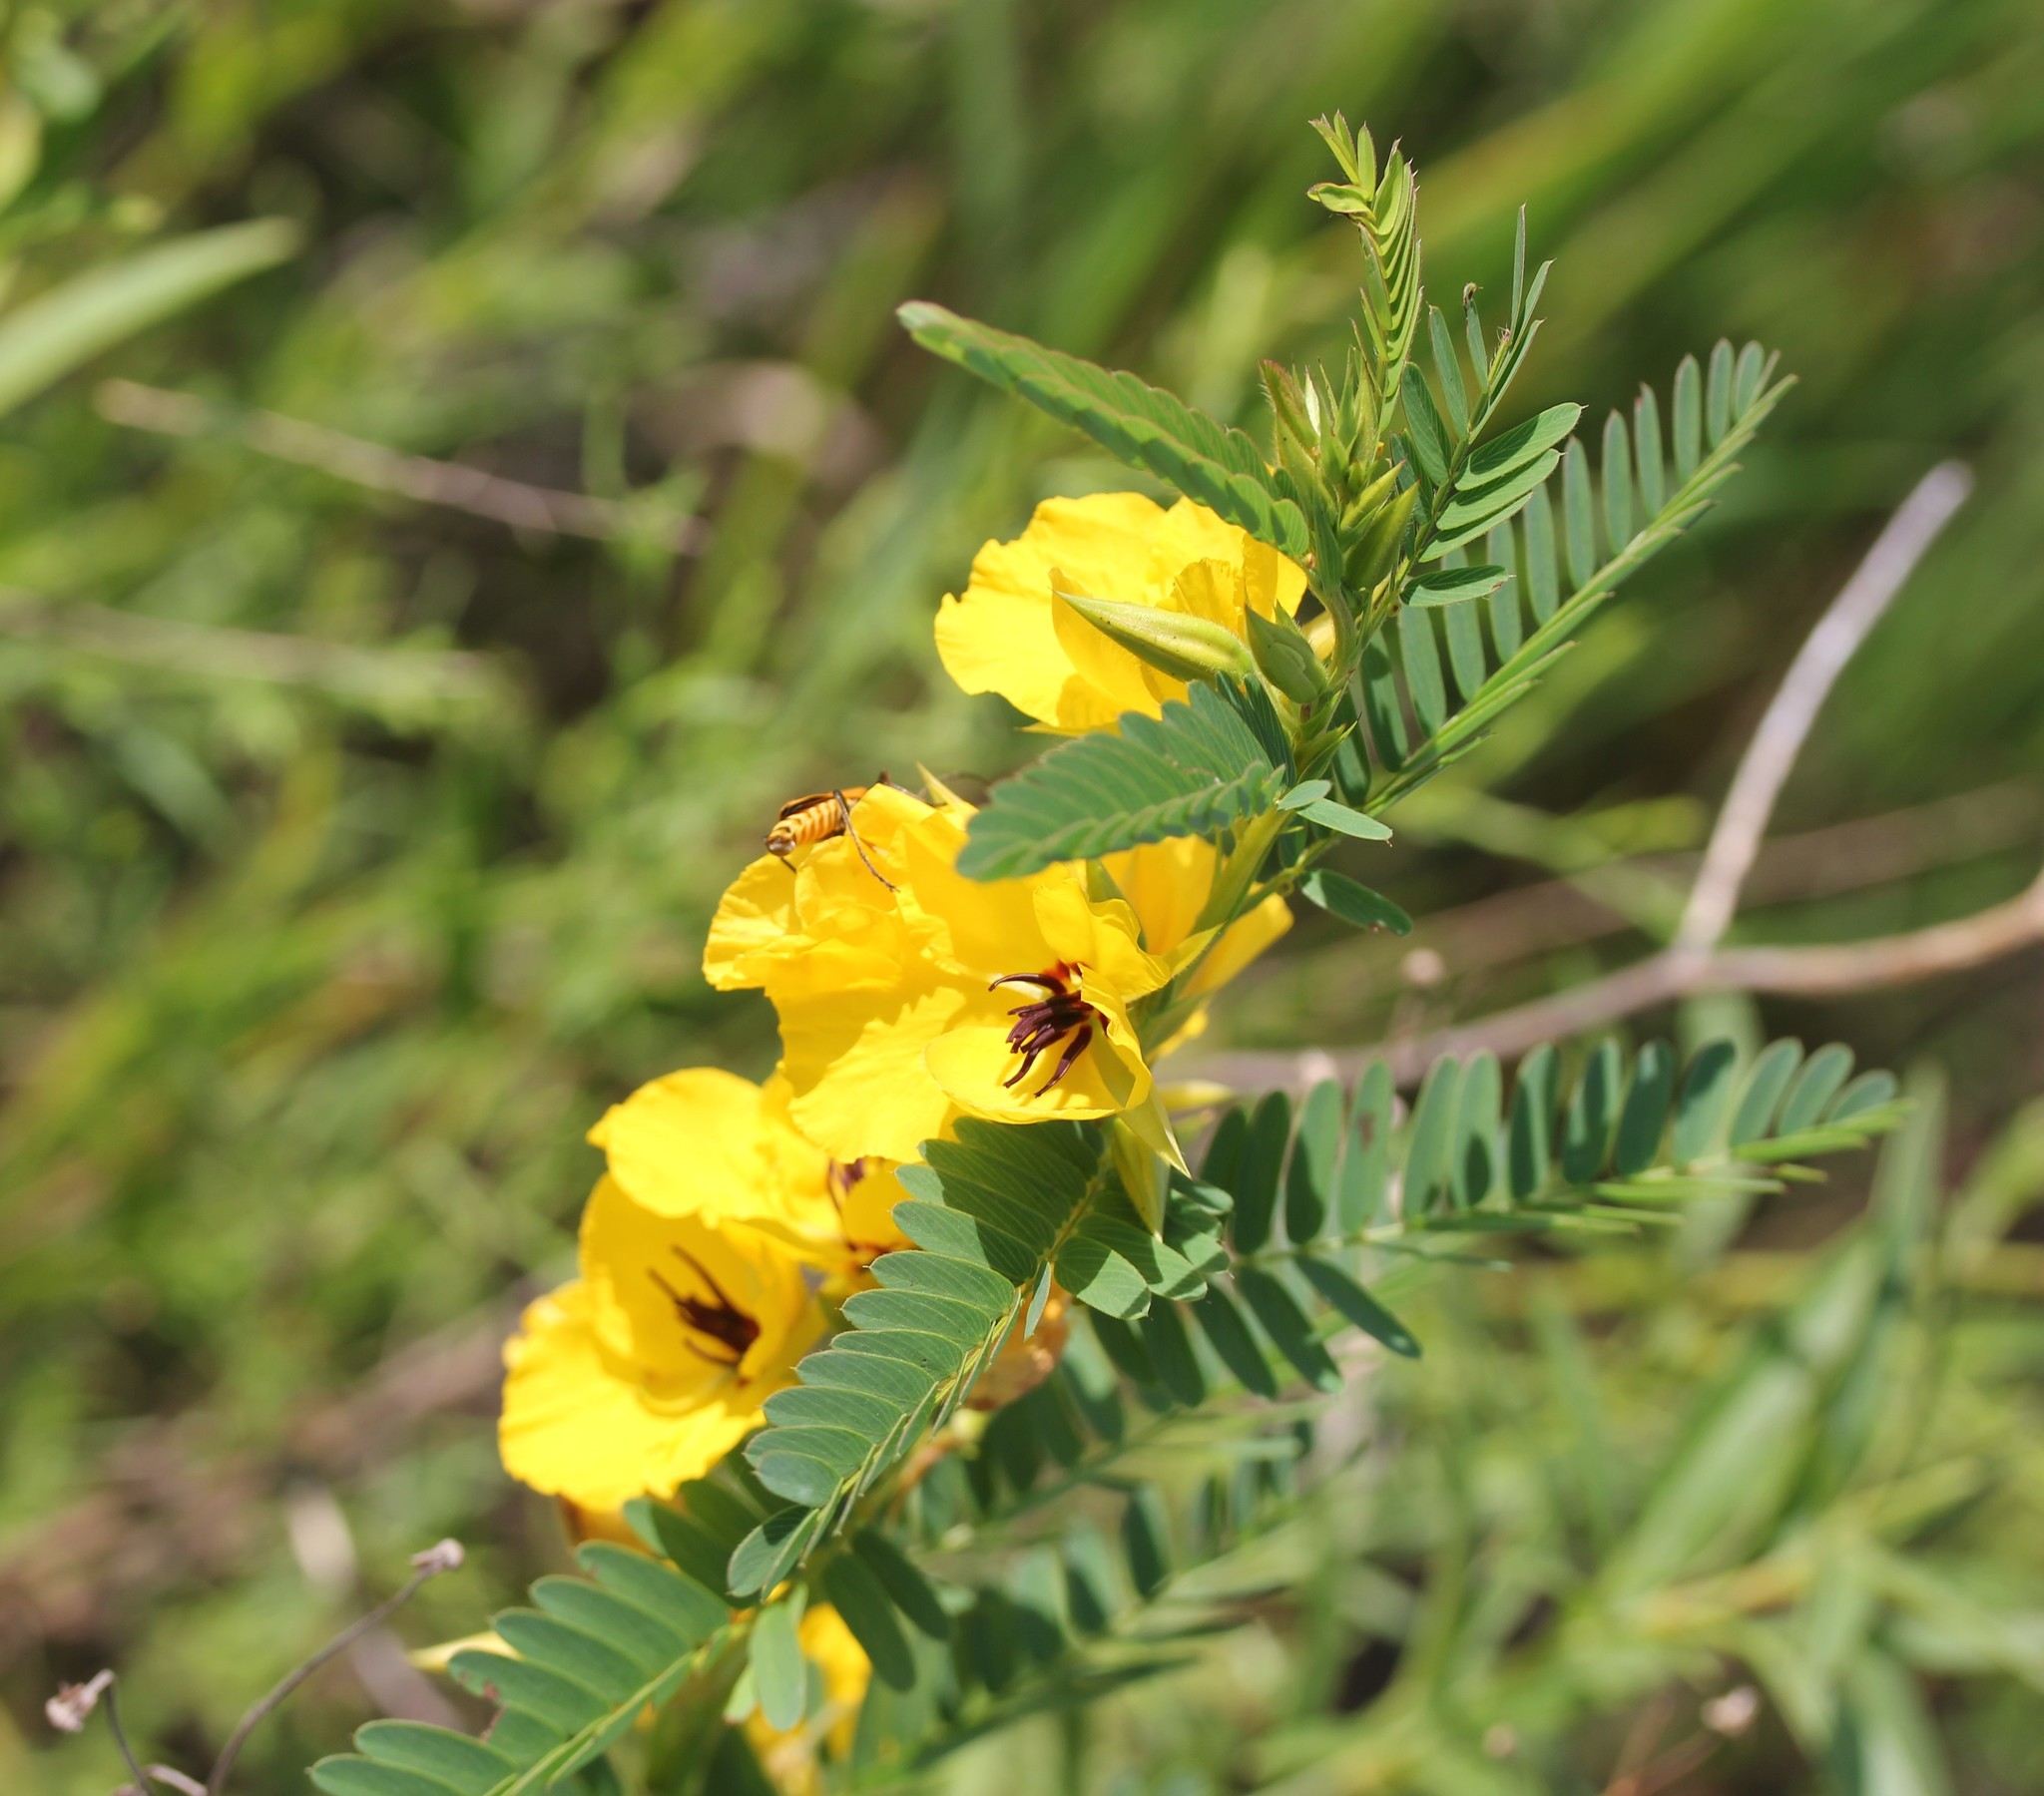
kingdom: Plantae
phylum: Tracheophyta
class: Magnoliopsida
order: Fabales
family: Fabaceae
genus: Chamaecrista
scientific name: Chamaecrista fasciculata
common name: Golden cassia
